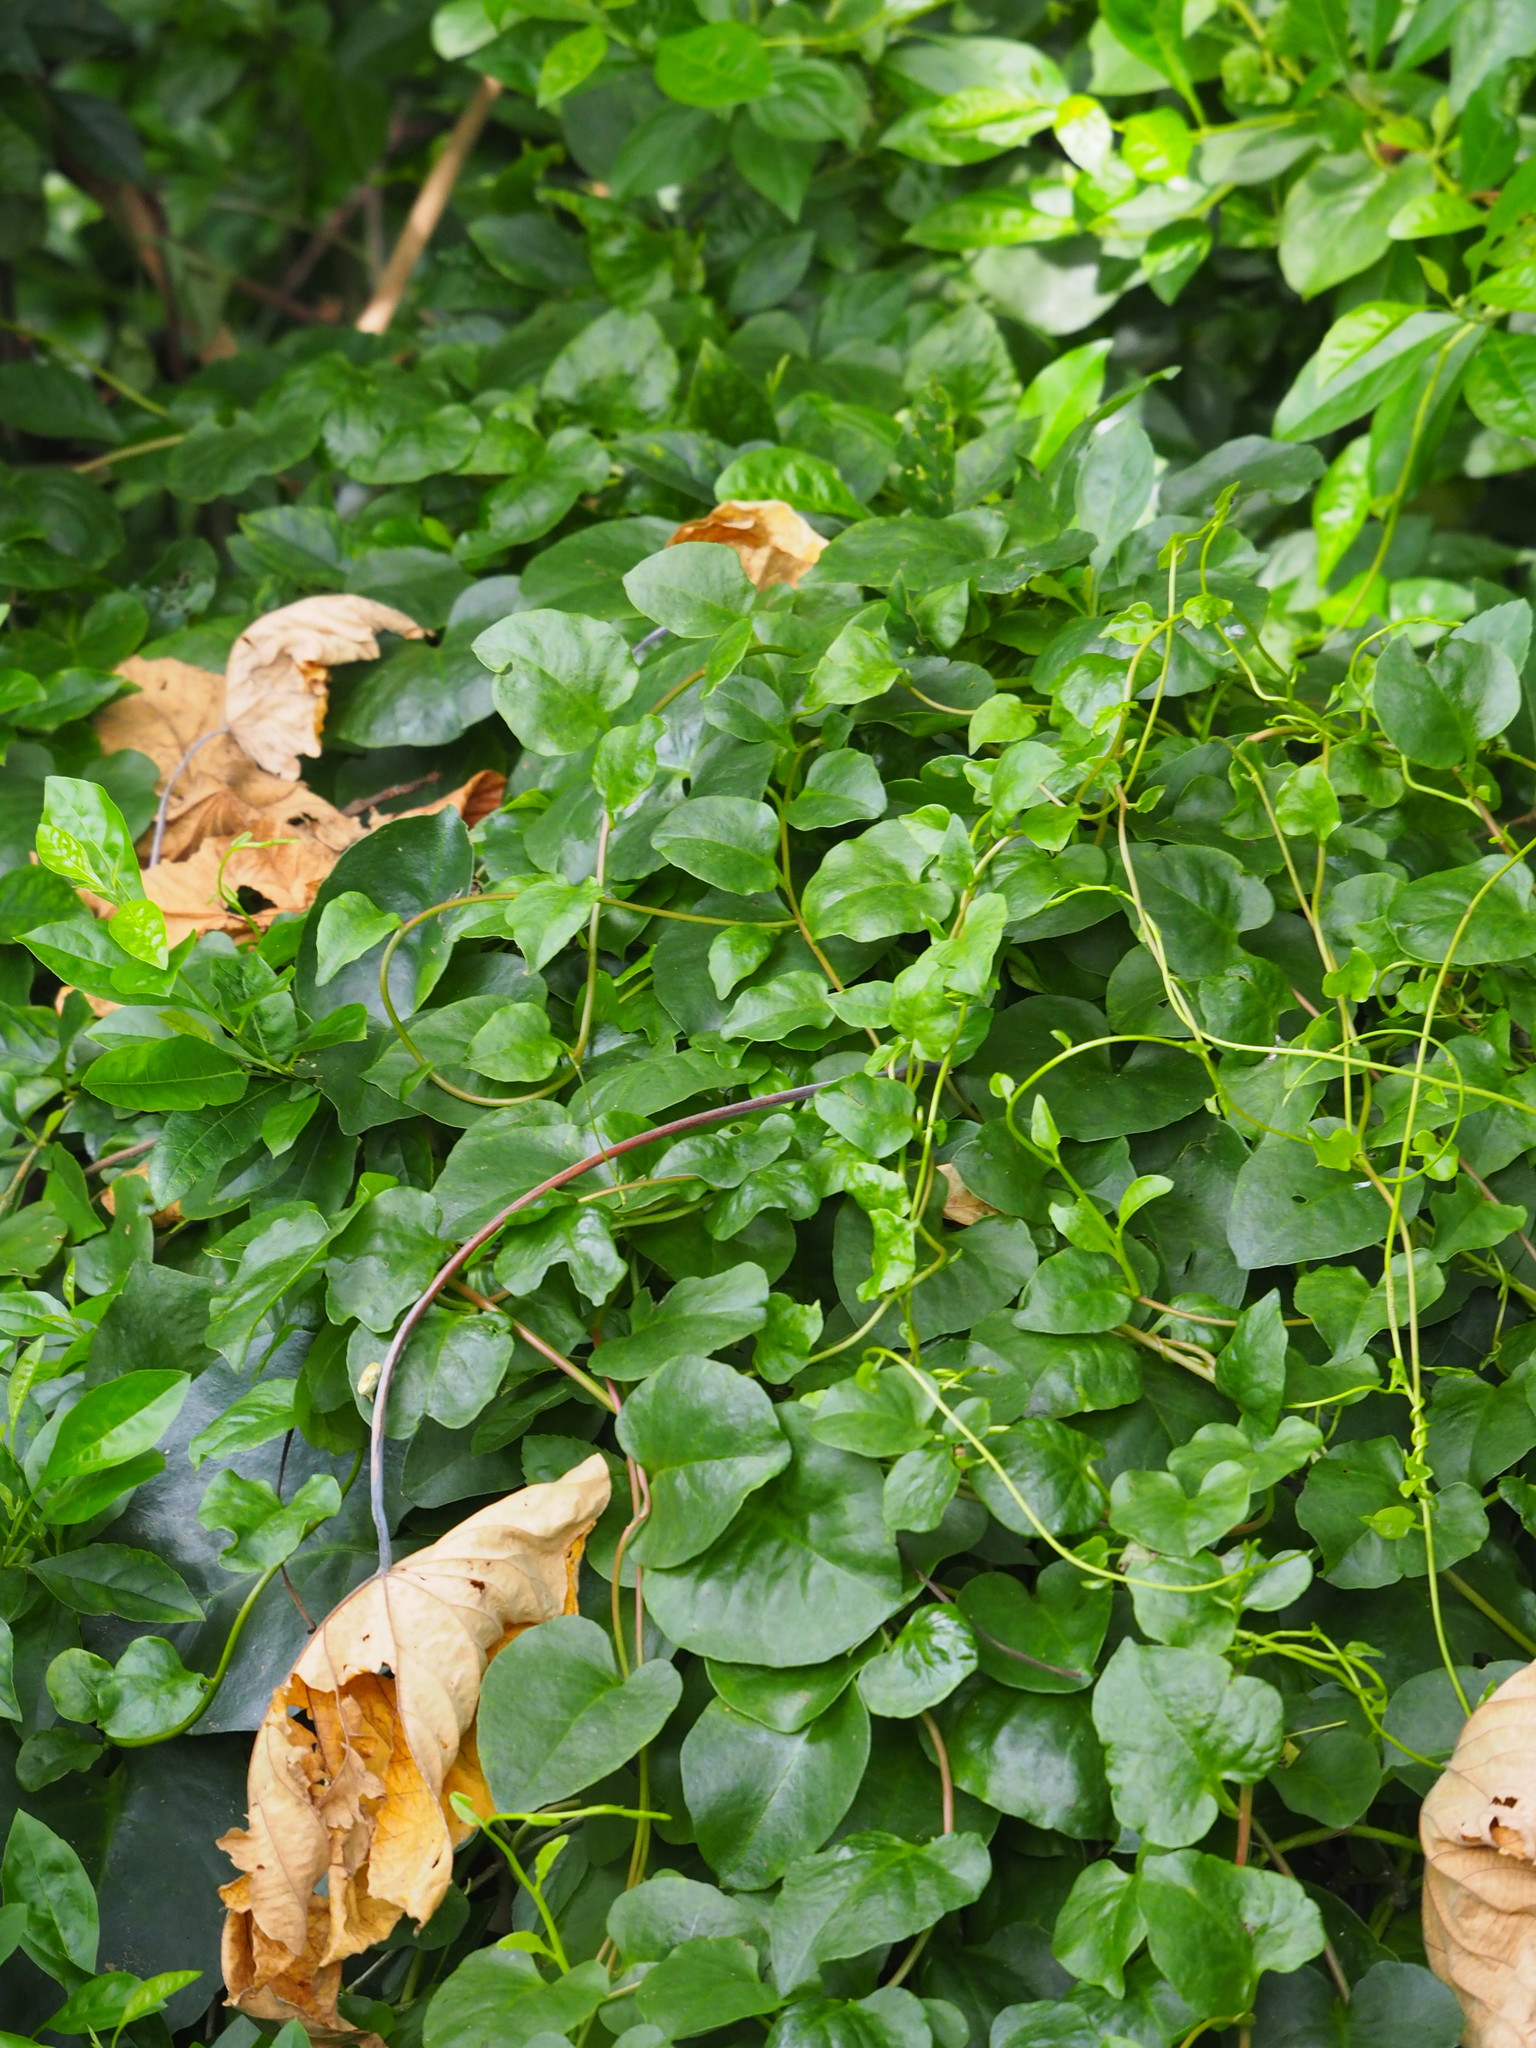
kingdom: Plantae
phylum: Tracheophyta
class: Magnoliopsida
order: Caryophyllales
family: Basellaceae
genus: Anredera
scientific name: Anredera cordifolia
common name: Heartleaf madeiravine
